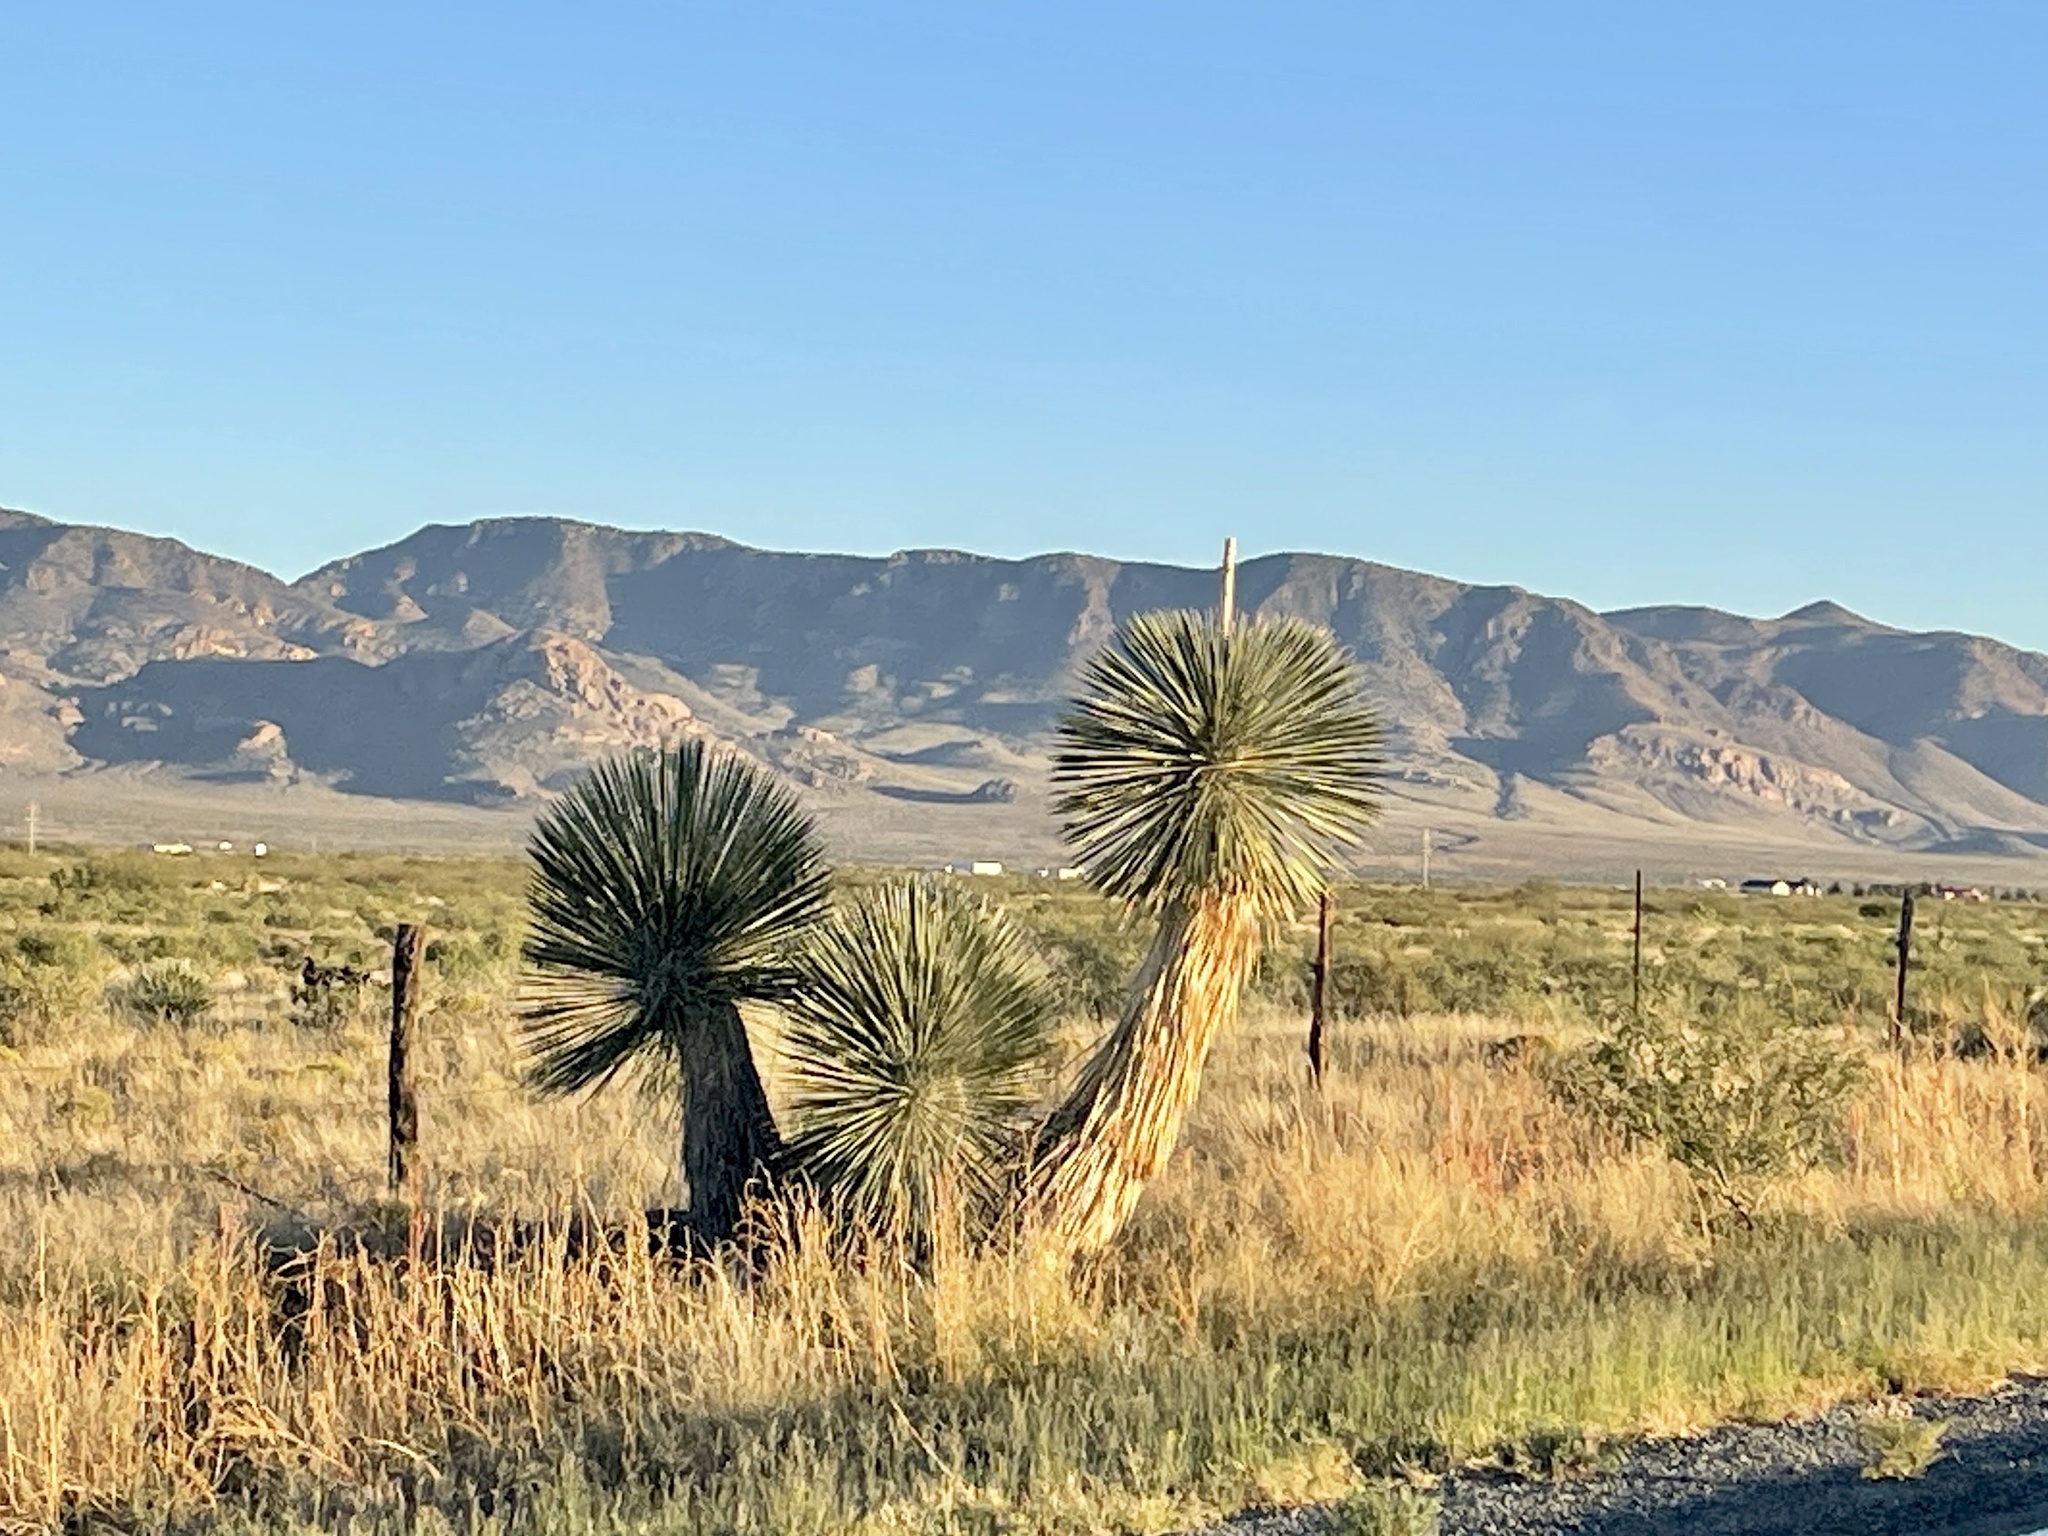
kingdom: Plantae
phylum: Tracheophyta
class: Liliopsida
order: Asparagales
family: Asparagaceae
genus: Yucca
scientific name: Yucca elata
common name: Palmella
